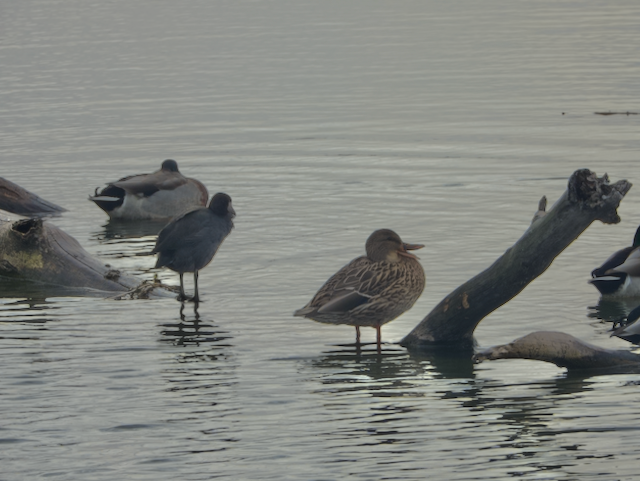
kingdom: Animalia
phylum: Chordata
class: Aves
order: Gruiformes
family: Rallidae
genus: Fulica
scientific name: Fulica americana
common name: American coot
